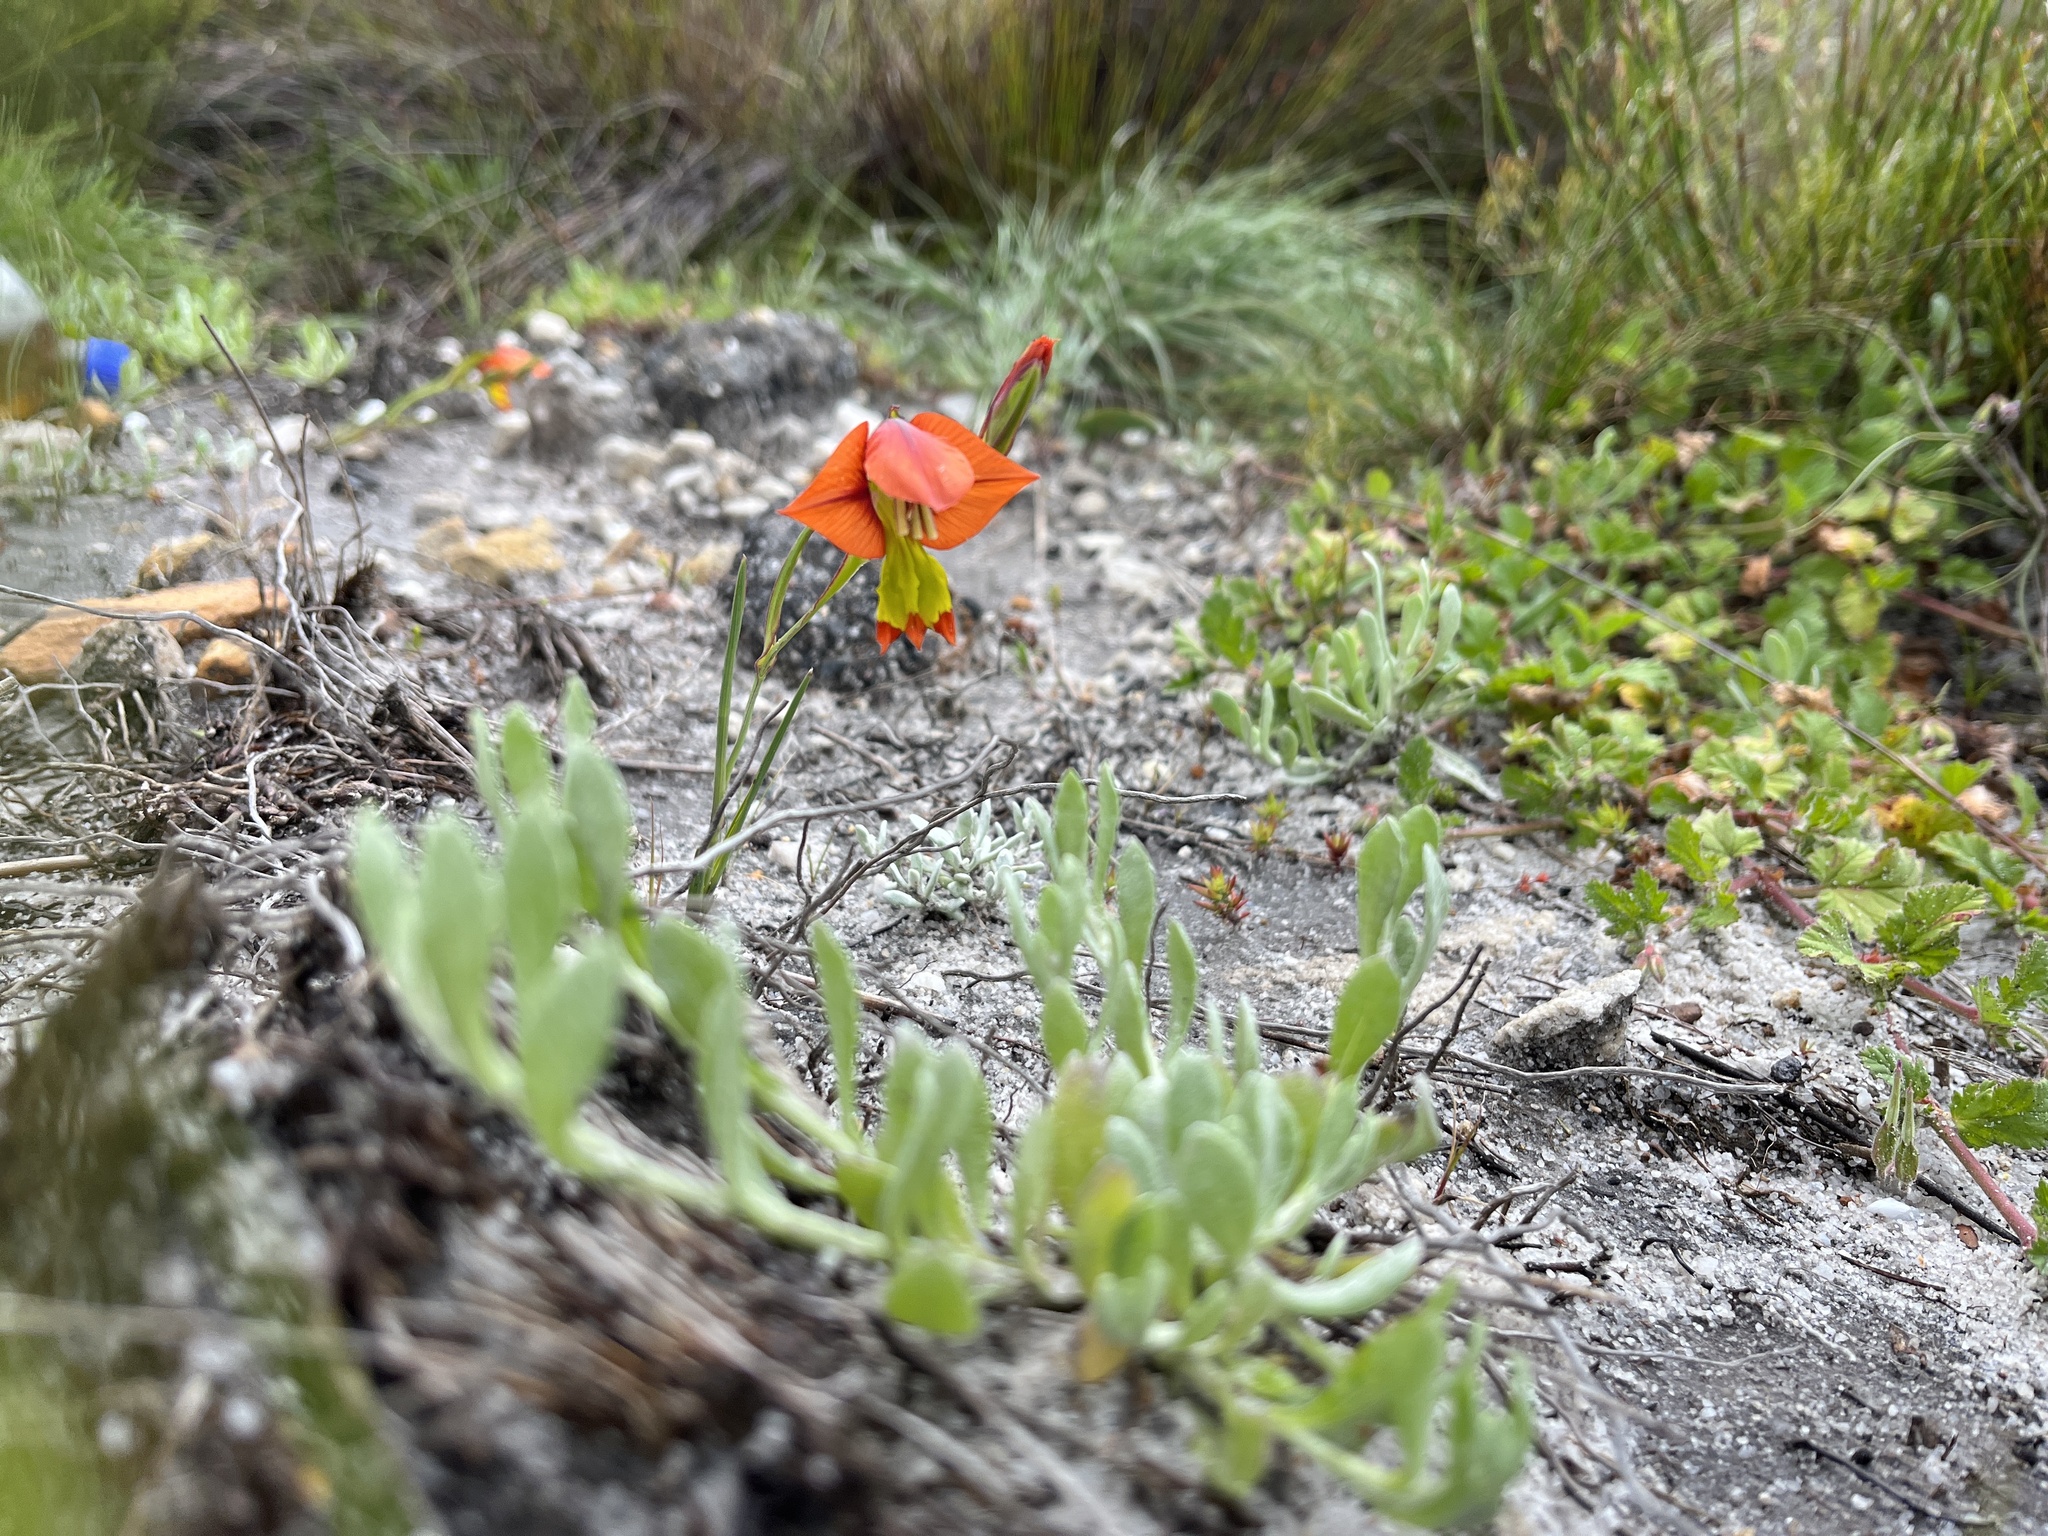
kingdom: Plantae
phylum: Tracheophyta
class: Liliopsida
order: Asparagales
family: Iridaceae
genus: Gladiolus
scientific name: Gladiolus alatus
